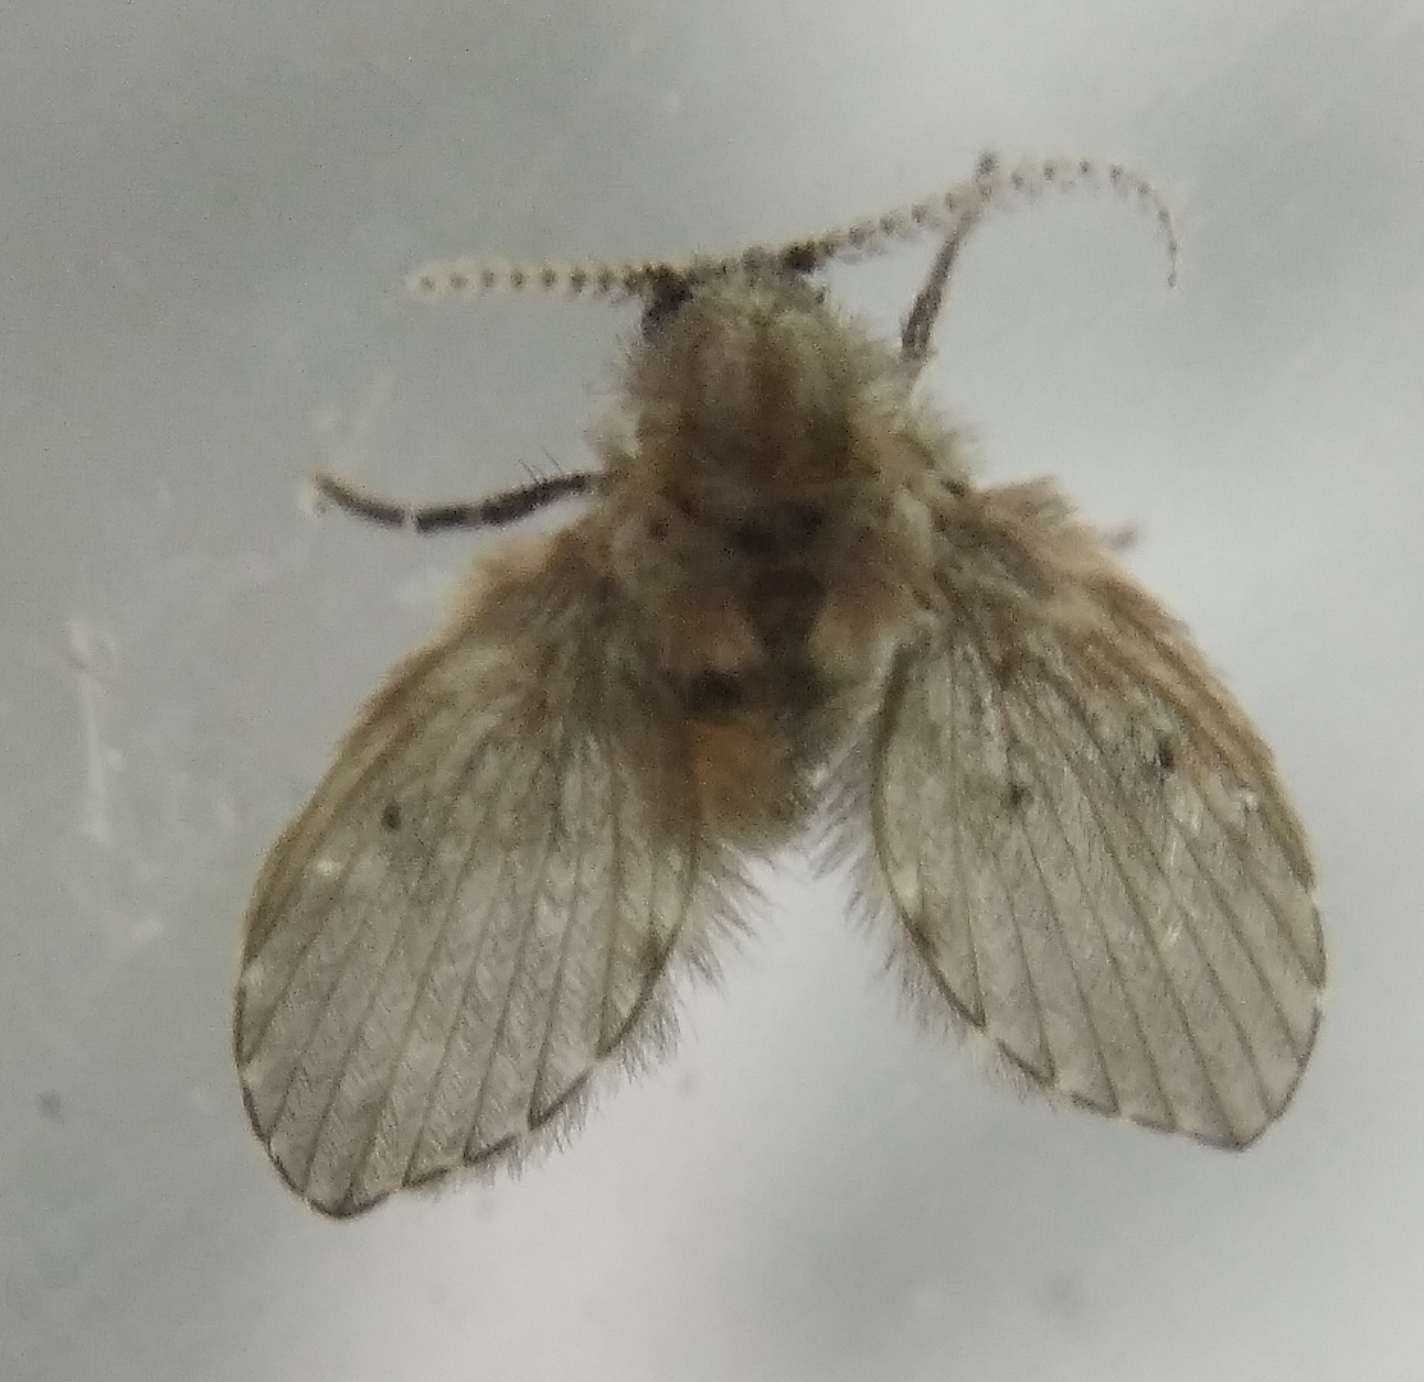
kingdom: Animalia
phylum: Arthropoda
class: Insecta
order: Diptera
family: Psychodidae
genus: Clogmia
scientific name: Clogmia albipunctatus
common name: White-spotted moth fly
